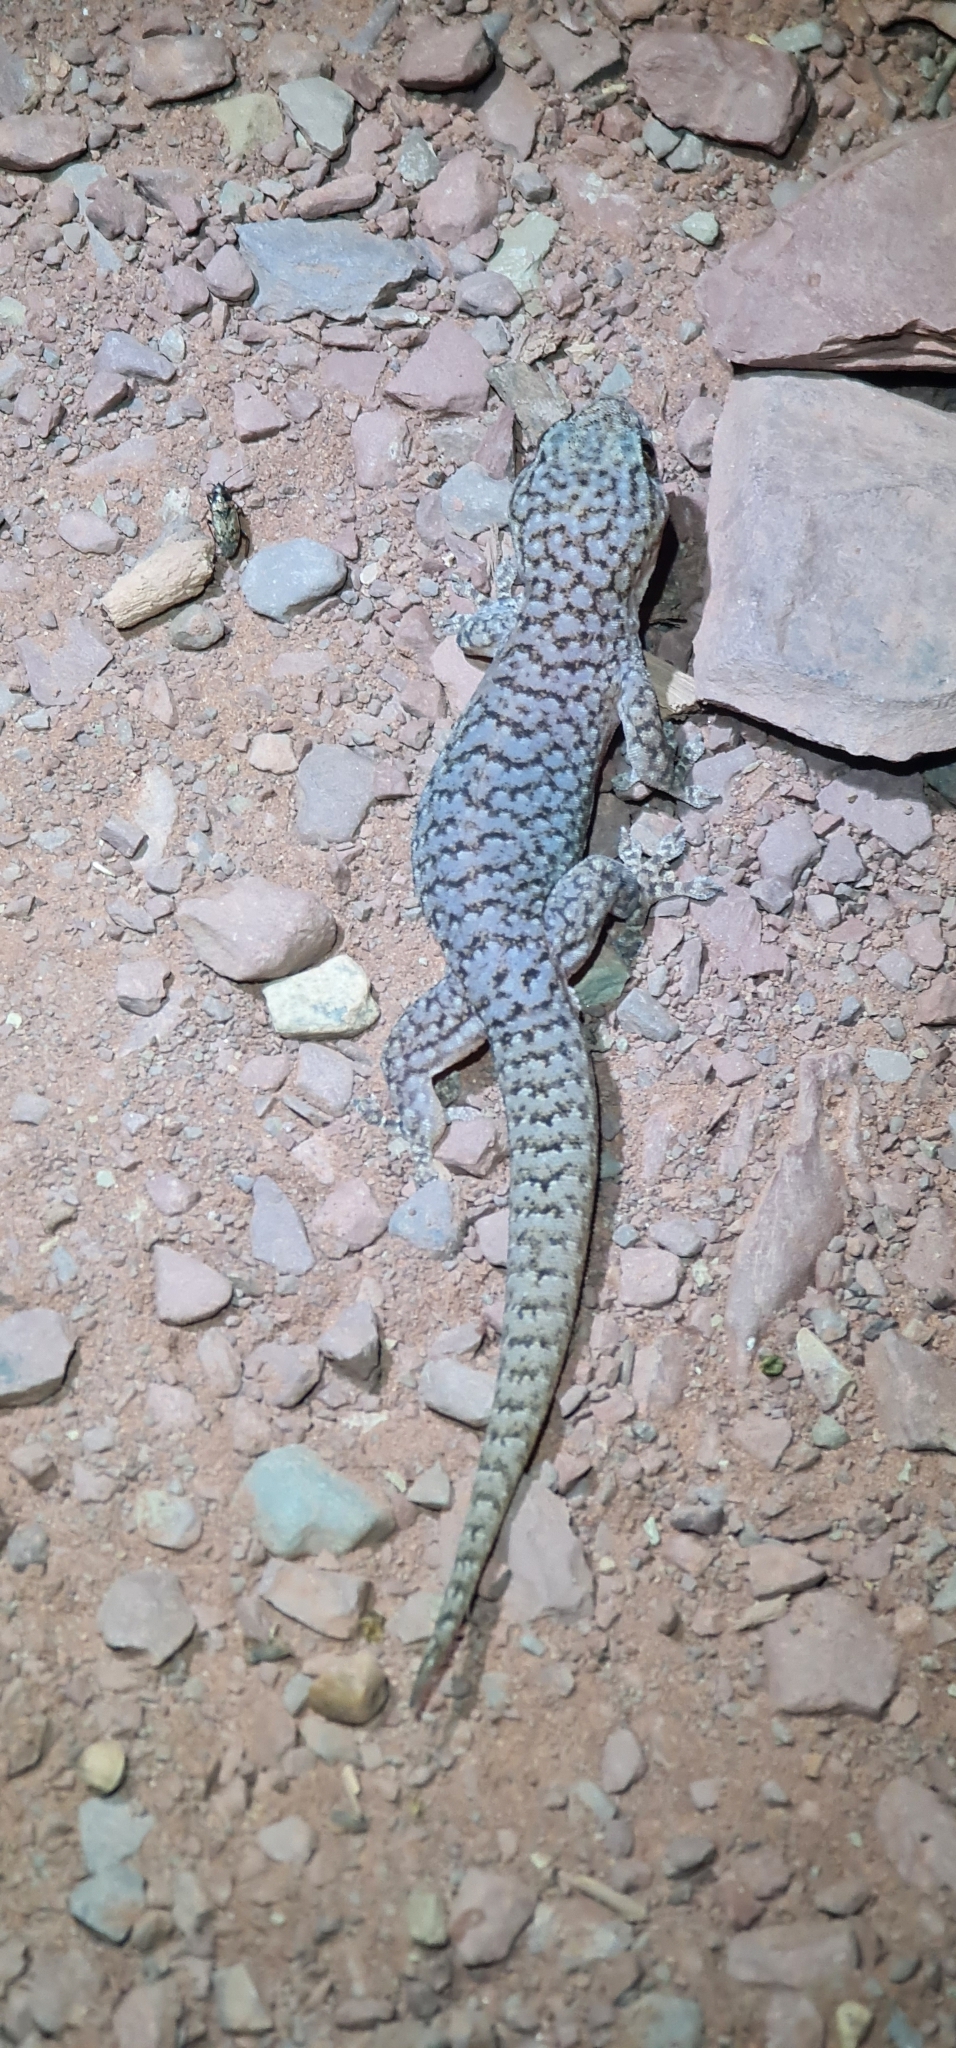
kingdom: Animalia
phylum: Chordata
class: Squamata
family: Gekkonidae
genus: Gehyra
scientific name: Gehyra lazelli
